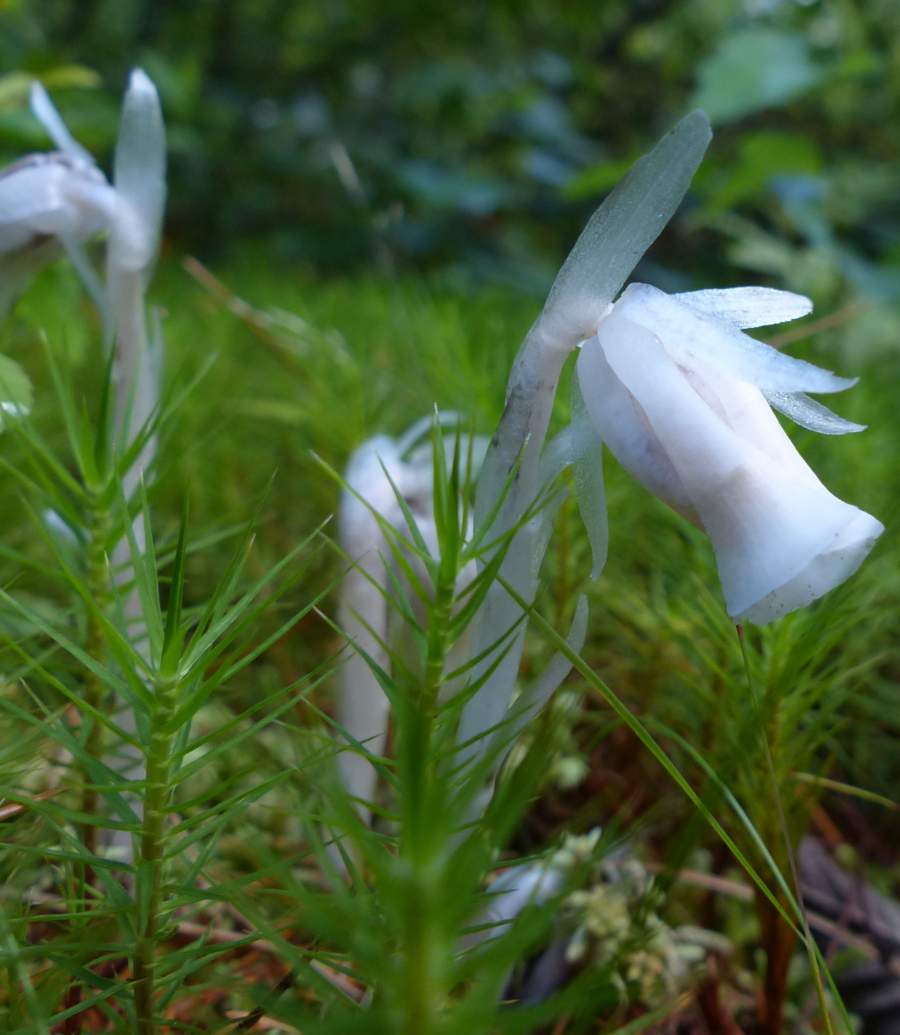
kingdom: Plantae
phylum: Tracheophyta
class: Magnoliopsida
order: Ericales
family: Ericaceae
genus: Monotropa
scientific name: Monotropa uniflora
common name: Convulsion root
